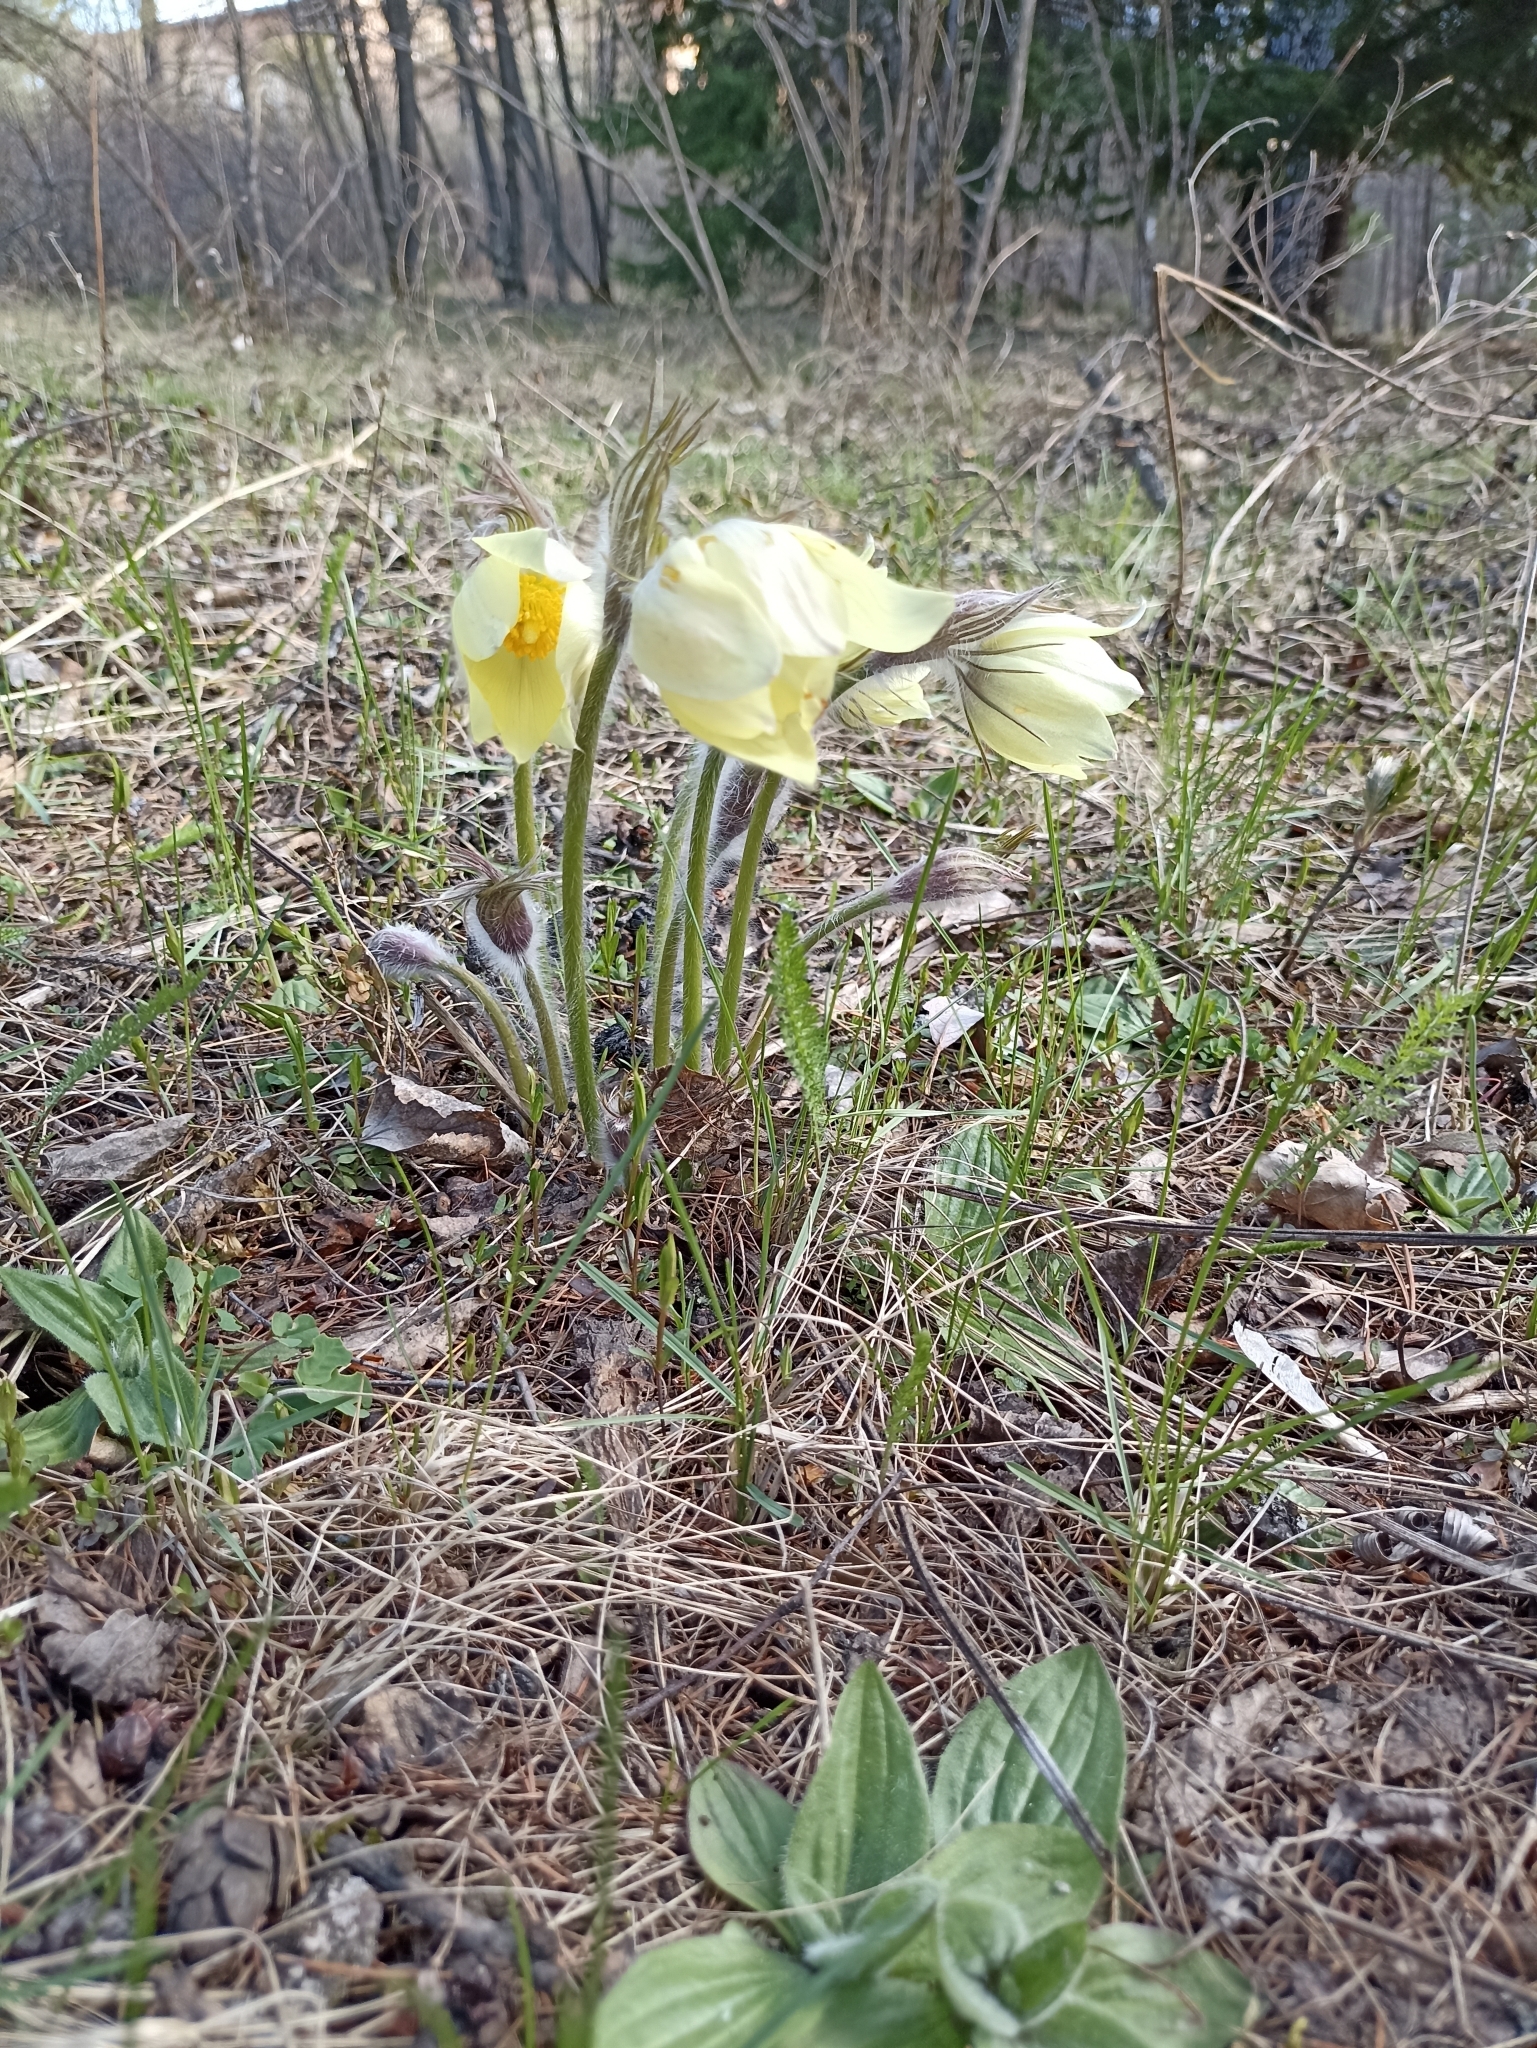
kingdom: Plantae
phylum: Tracheophyta
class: Magnoliopsida
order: Ranunculales
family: Ranunculaceae
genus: Pulsatilla
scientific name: Pulsatilla patens
